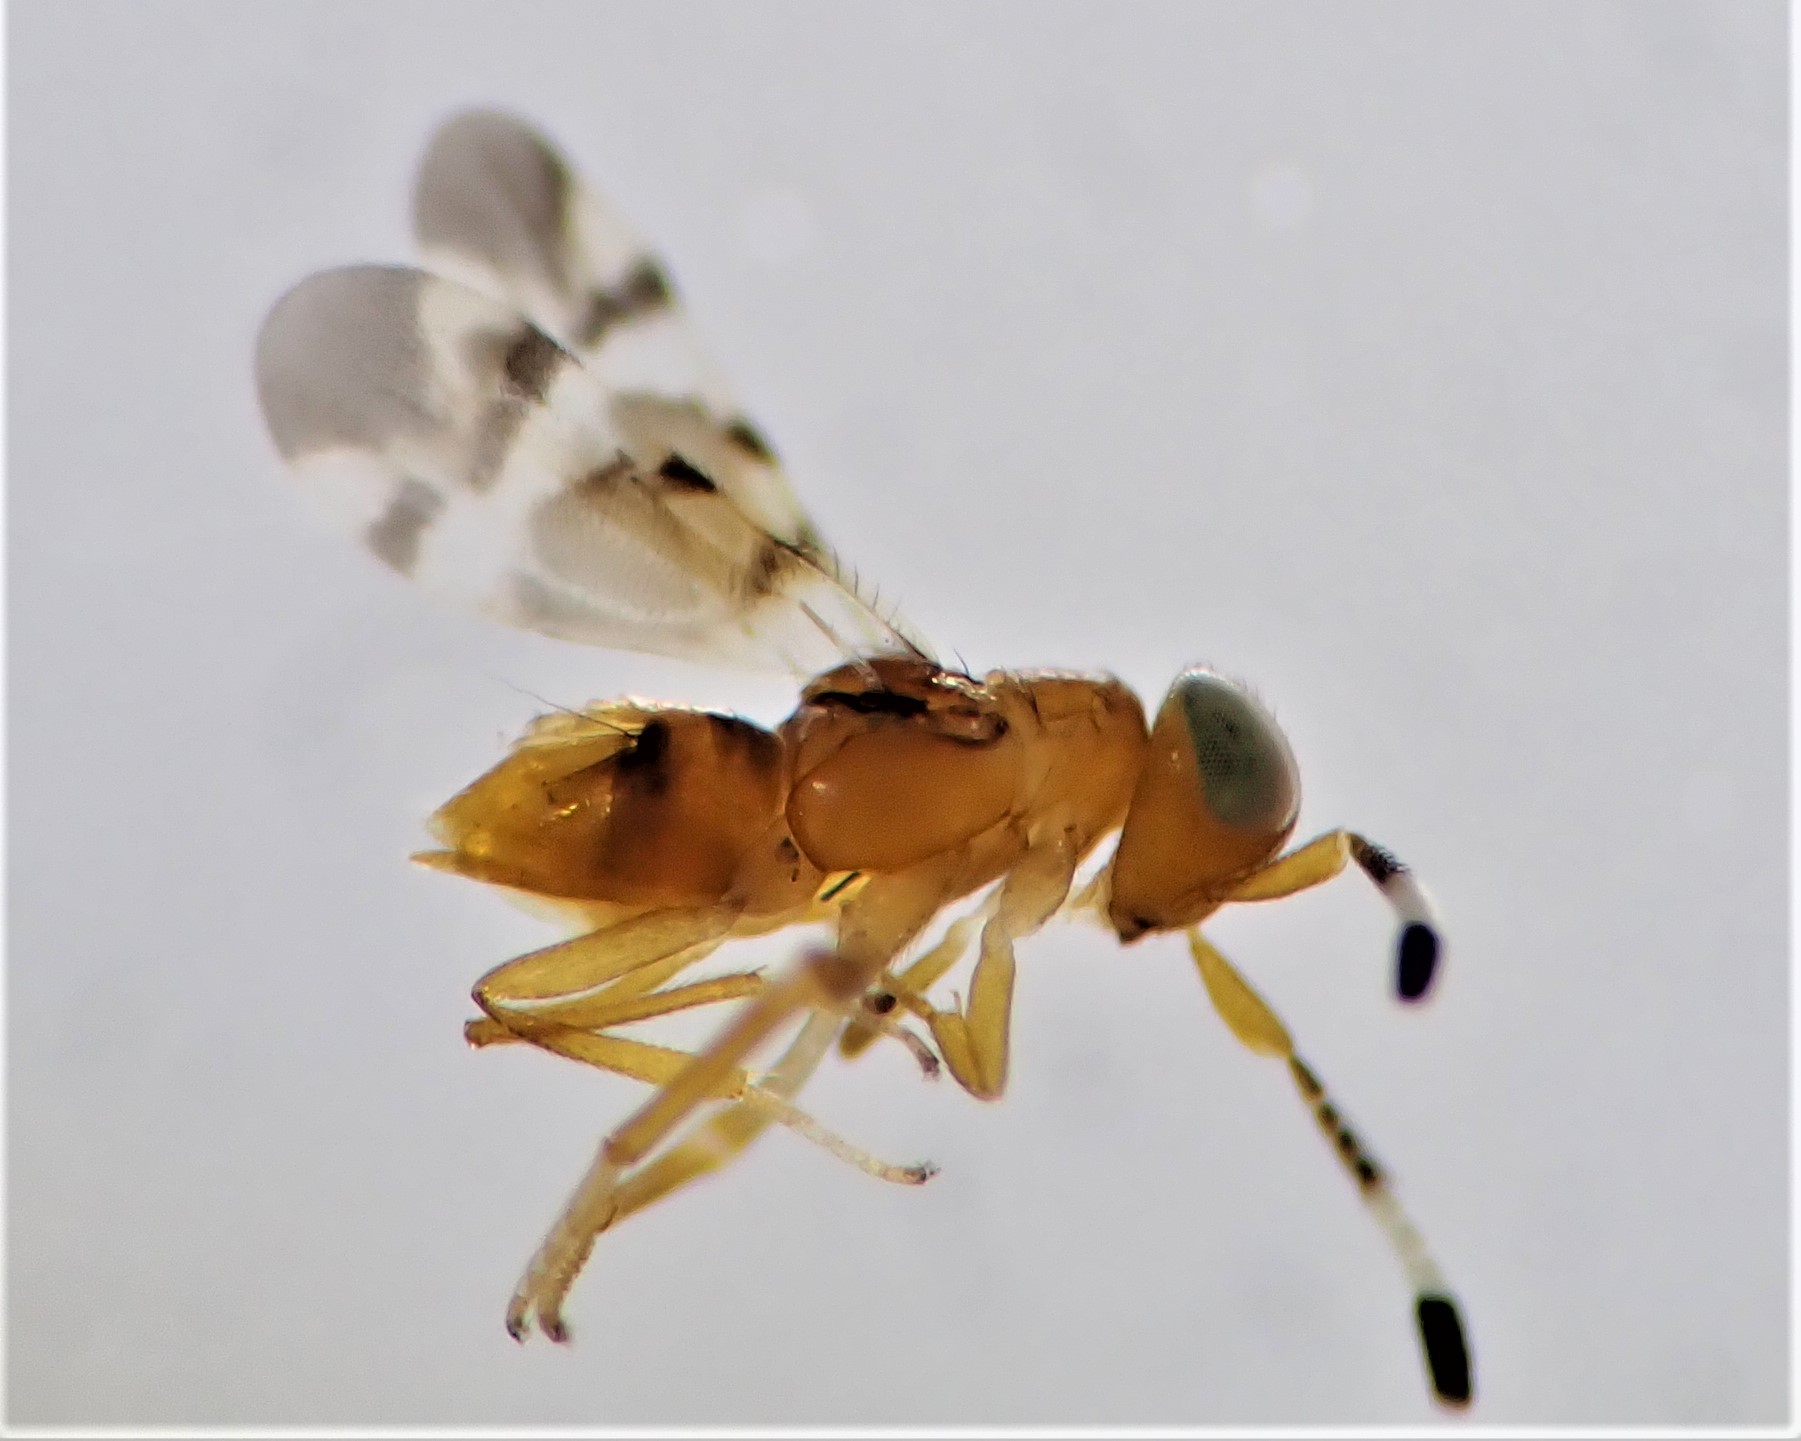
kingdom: Animalia
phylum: Arthropoda
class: Insecta
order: Hymenoptera
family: Encyrtidae
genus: Microterys
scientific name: Microterys nietneri
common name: Parasitoid wasp
